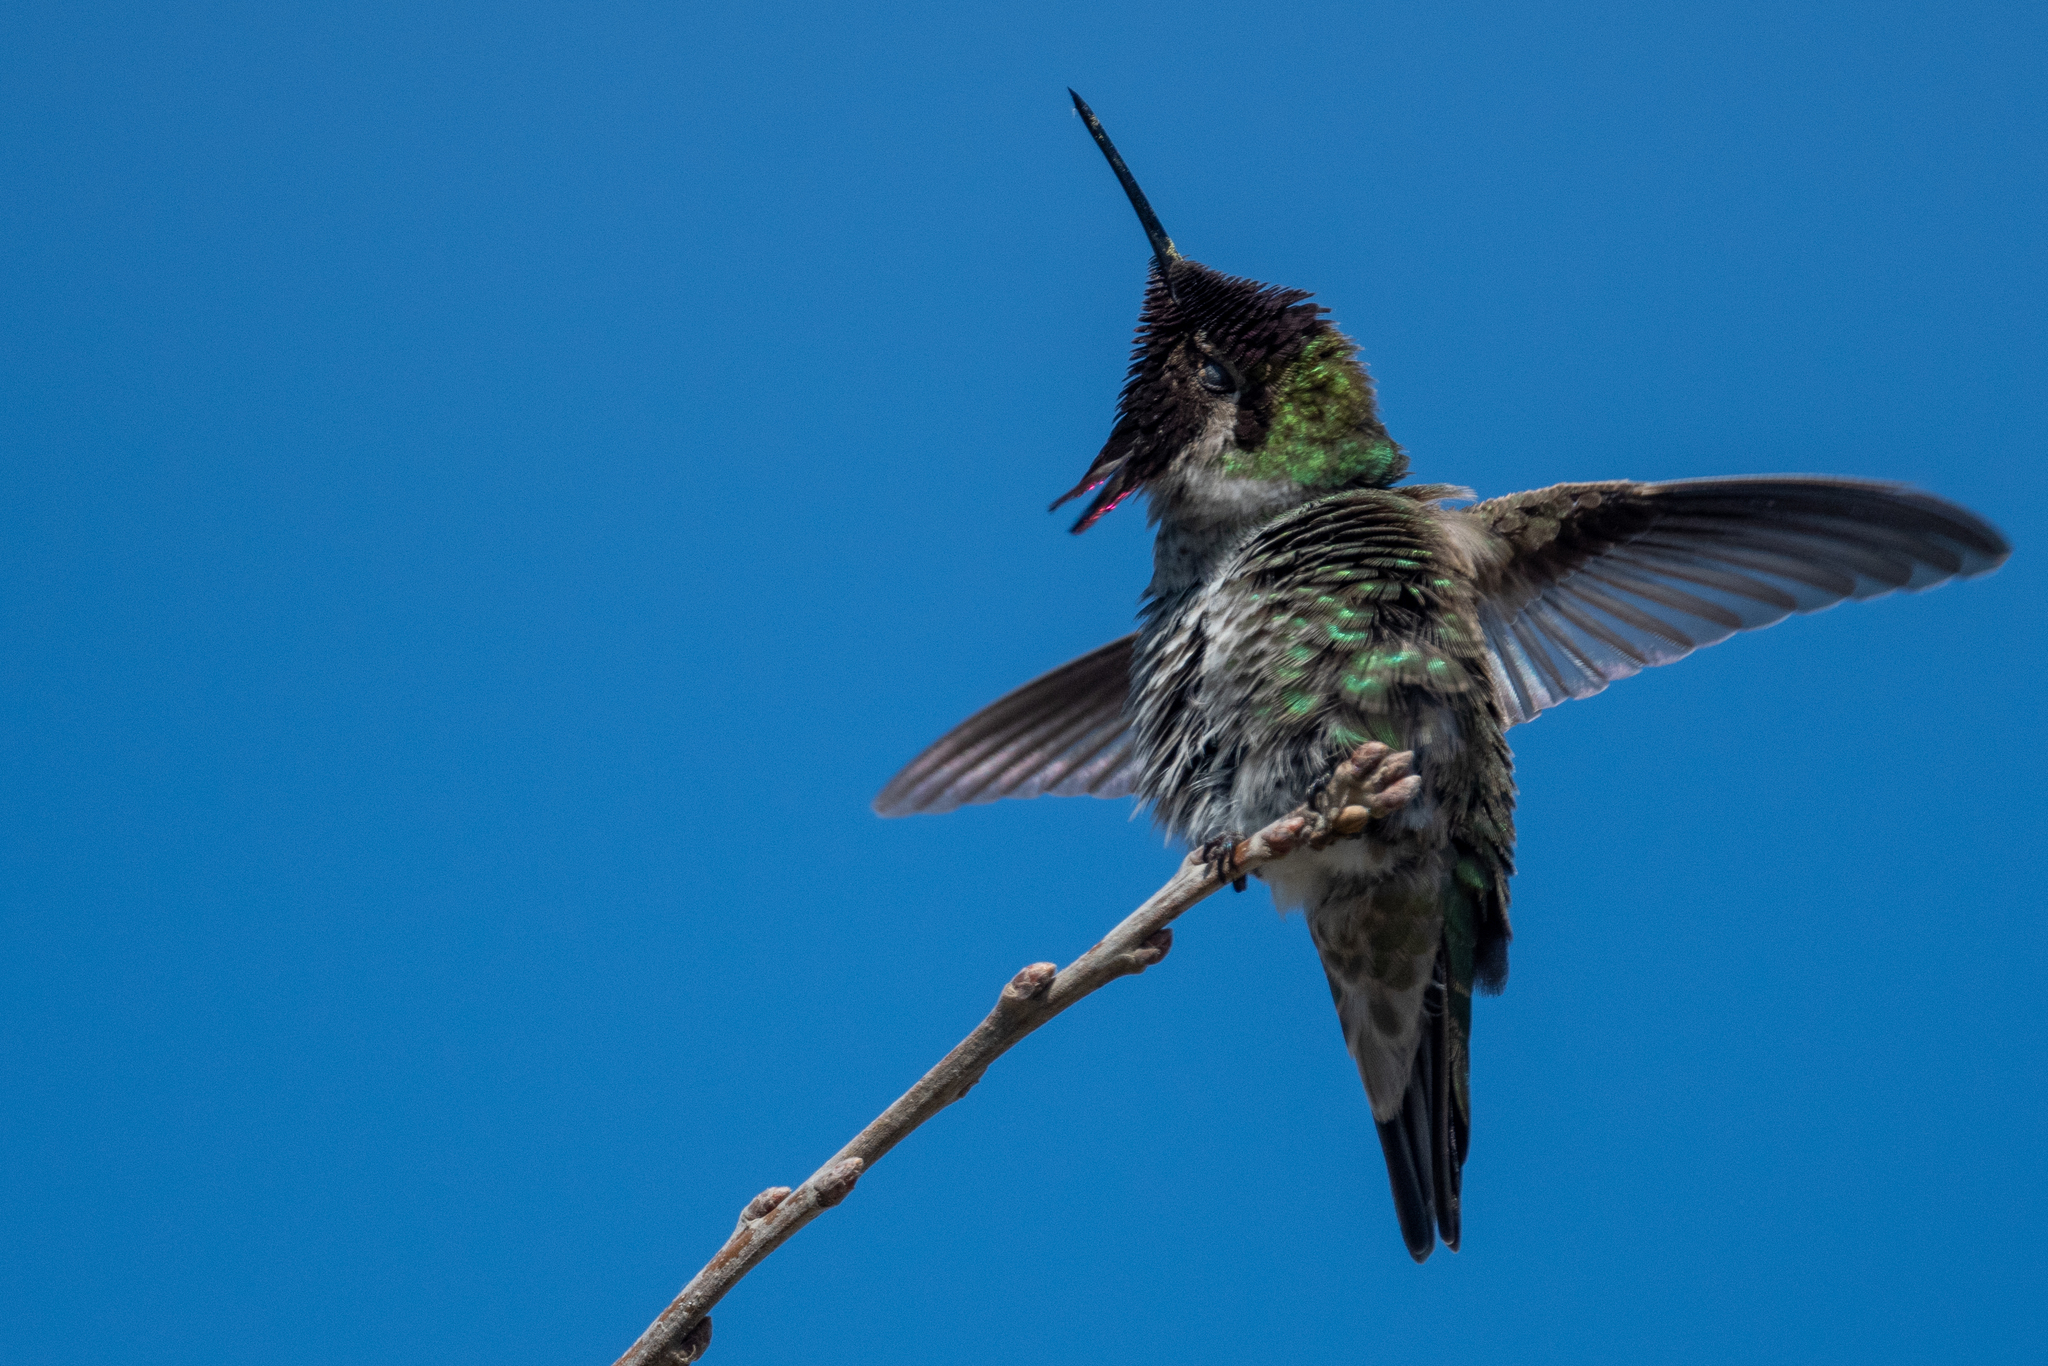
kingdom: Animalia
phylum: Chordata
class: Aves
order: Apodiformes
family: Trochilidae
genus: Calypte
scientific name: Calypte anna
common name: Anna's hummingbird
